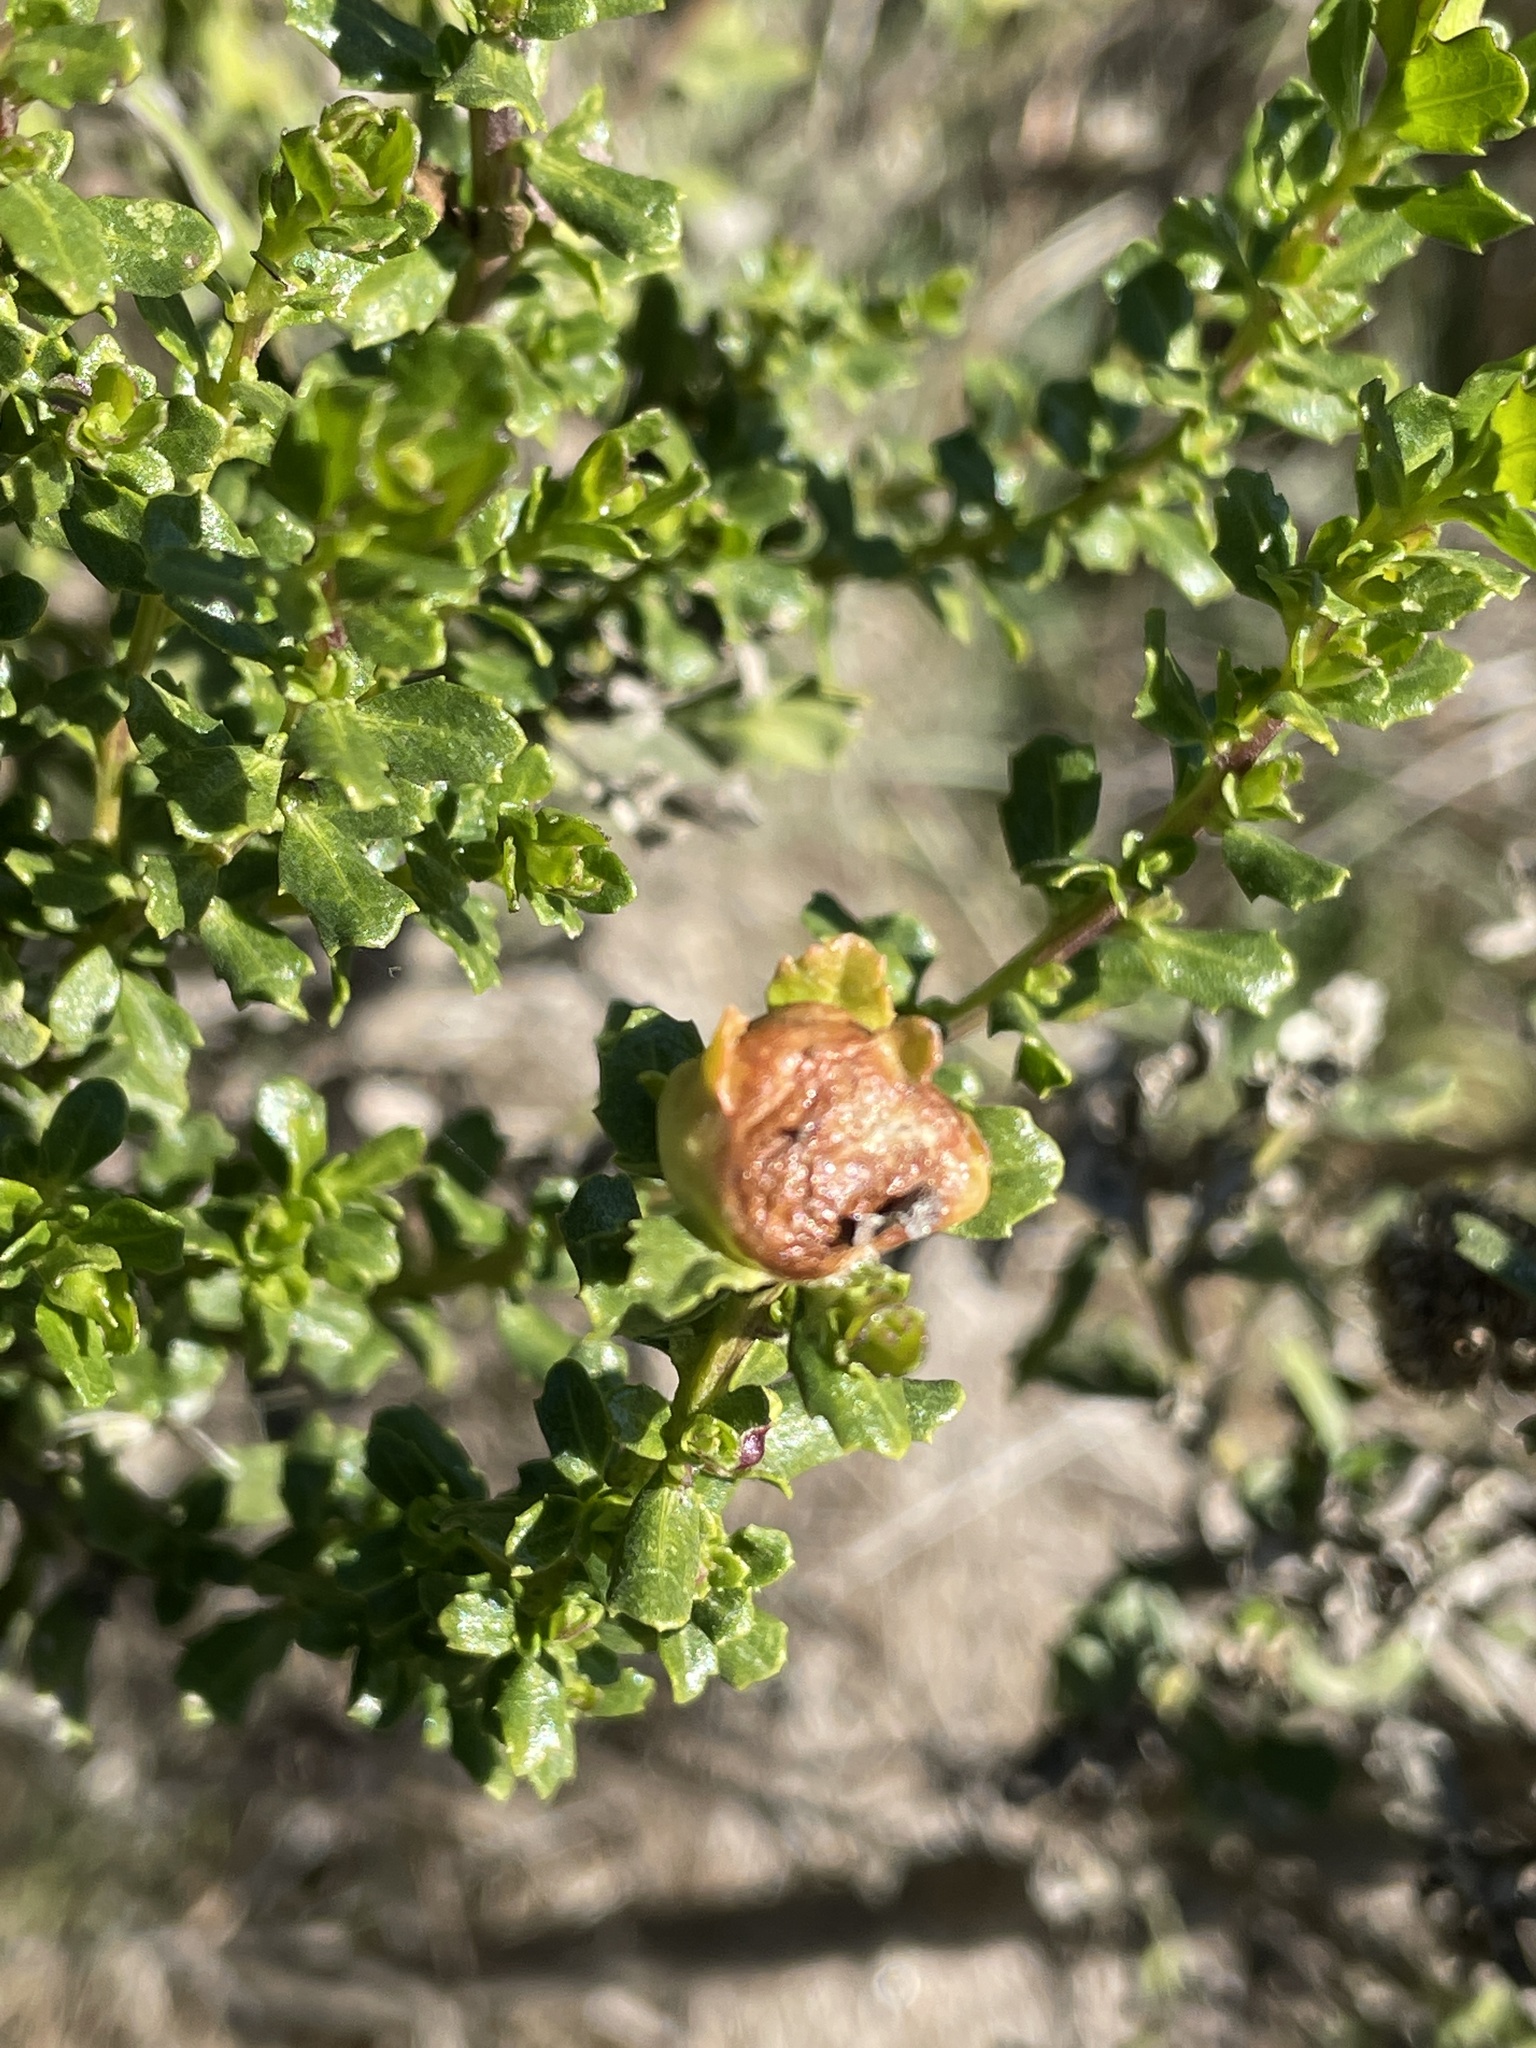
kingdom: Animalia
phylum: Arthropoda
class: Insecta
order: Diptera
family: Cecidomyiidae
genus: Rhopalomyia
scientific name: Rhopalomyia californica
